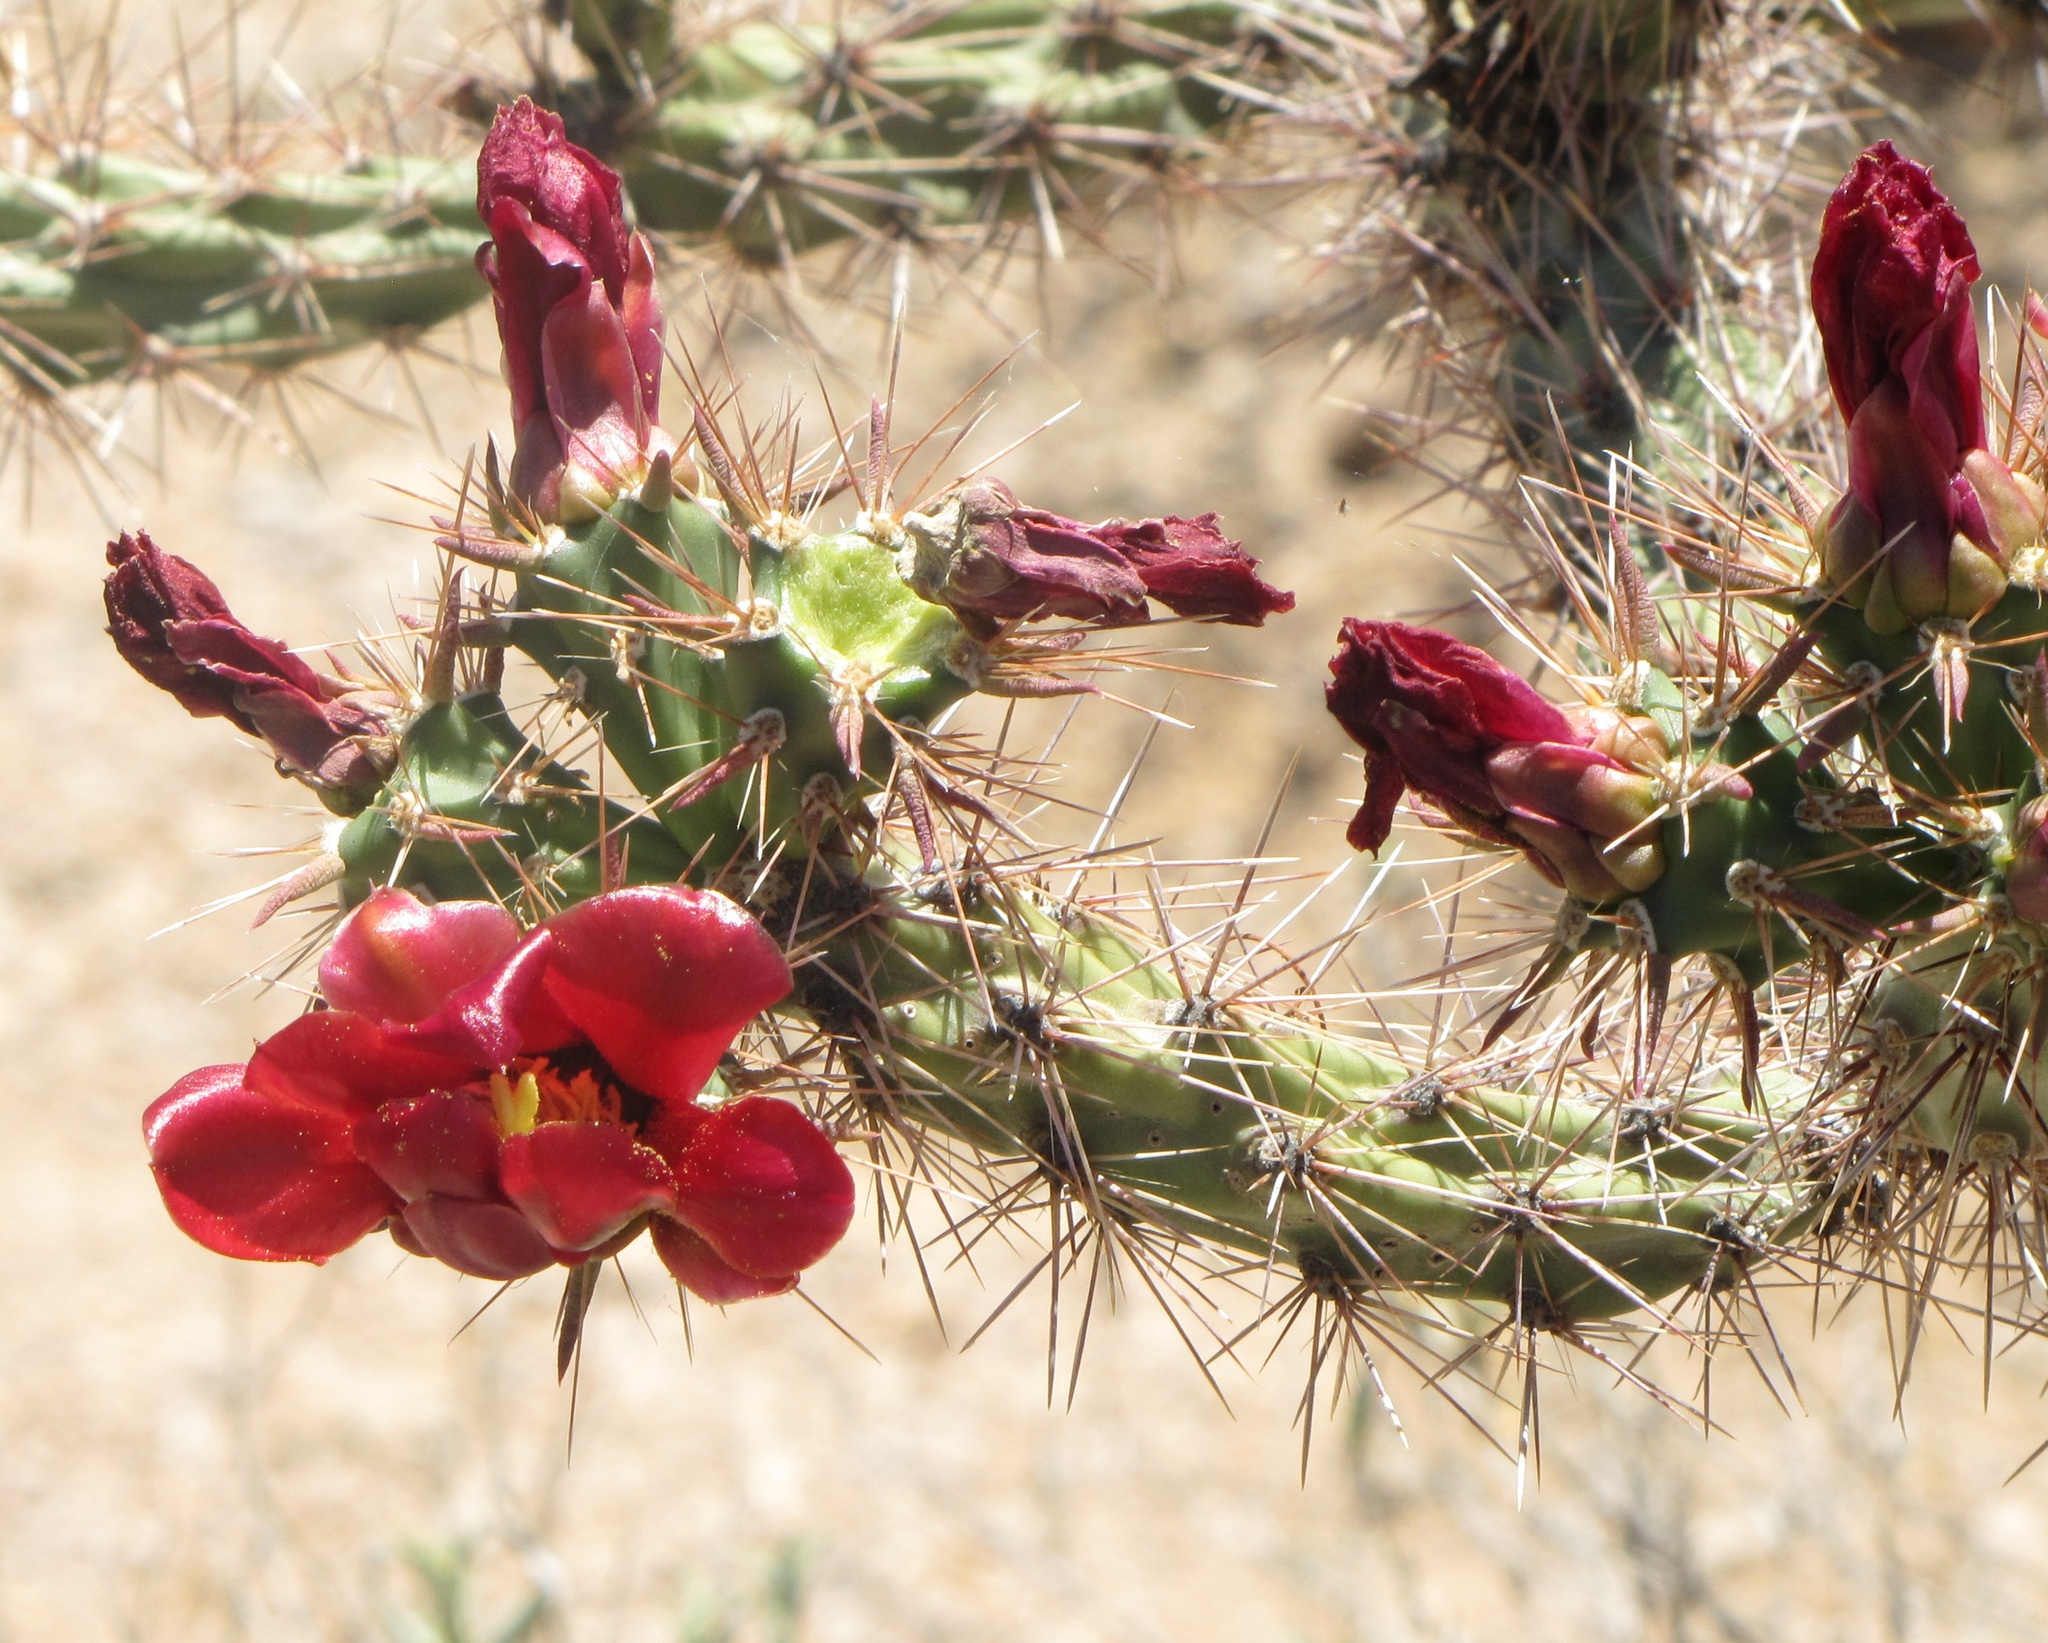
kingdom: Plantae
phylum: Tracheophyta
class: Magnoliopsida
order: Caryophyllales
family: Cactaceae
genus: Cylindropuntia
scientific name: Cylindropuntia acanthocarpa
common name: Buckhorn cholla
